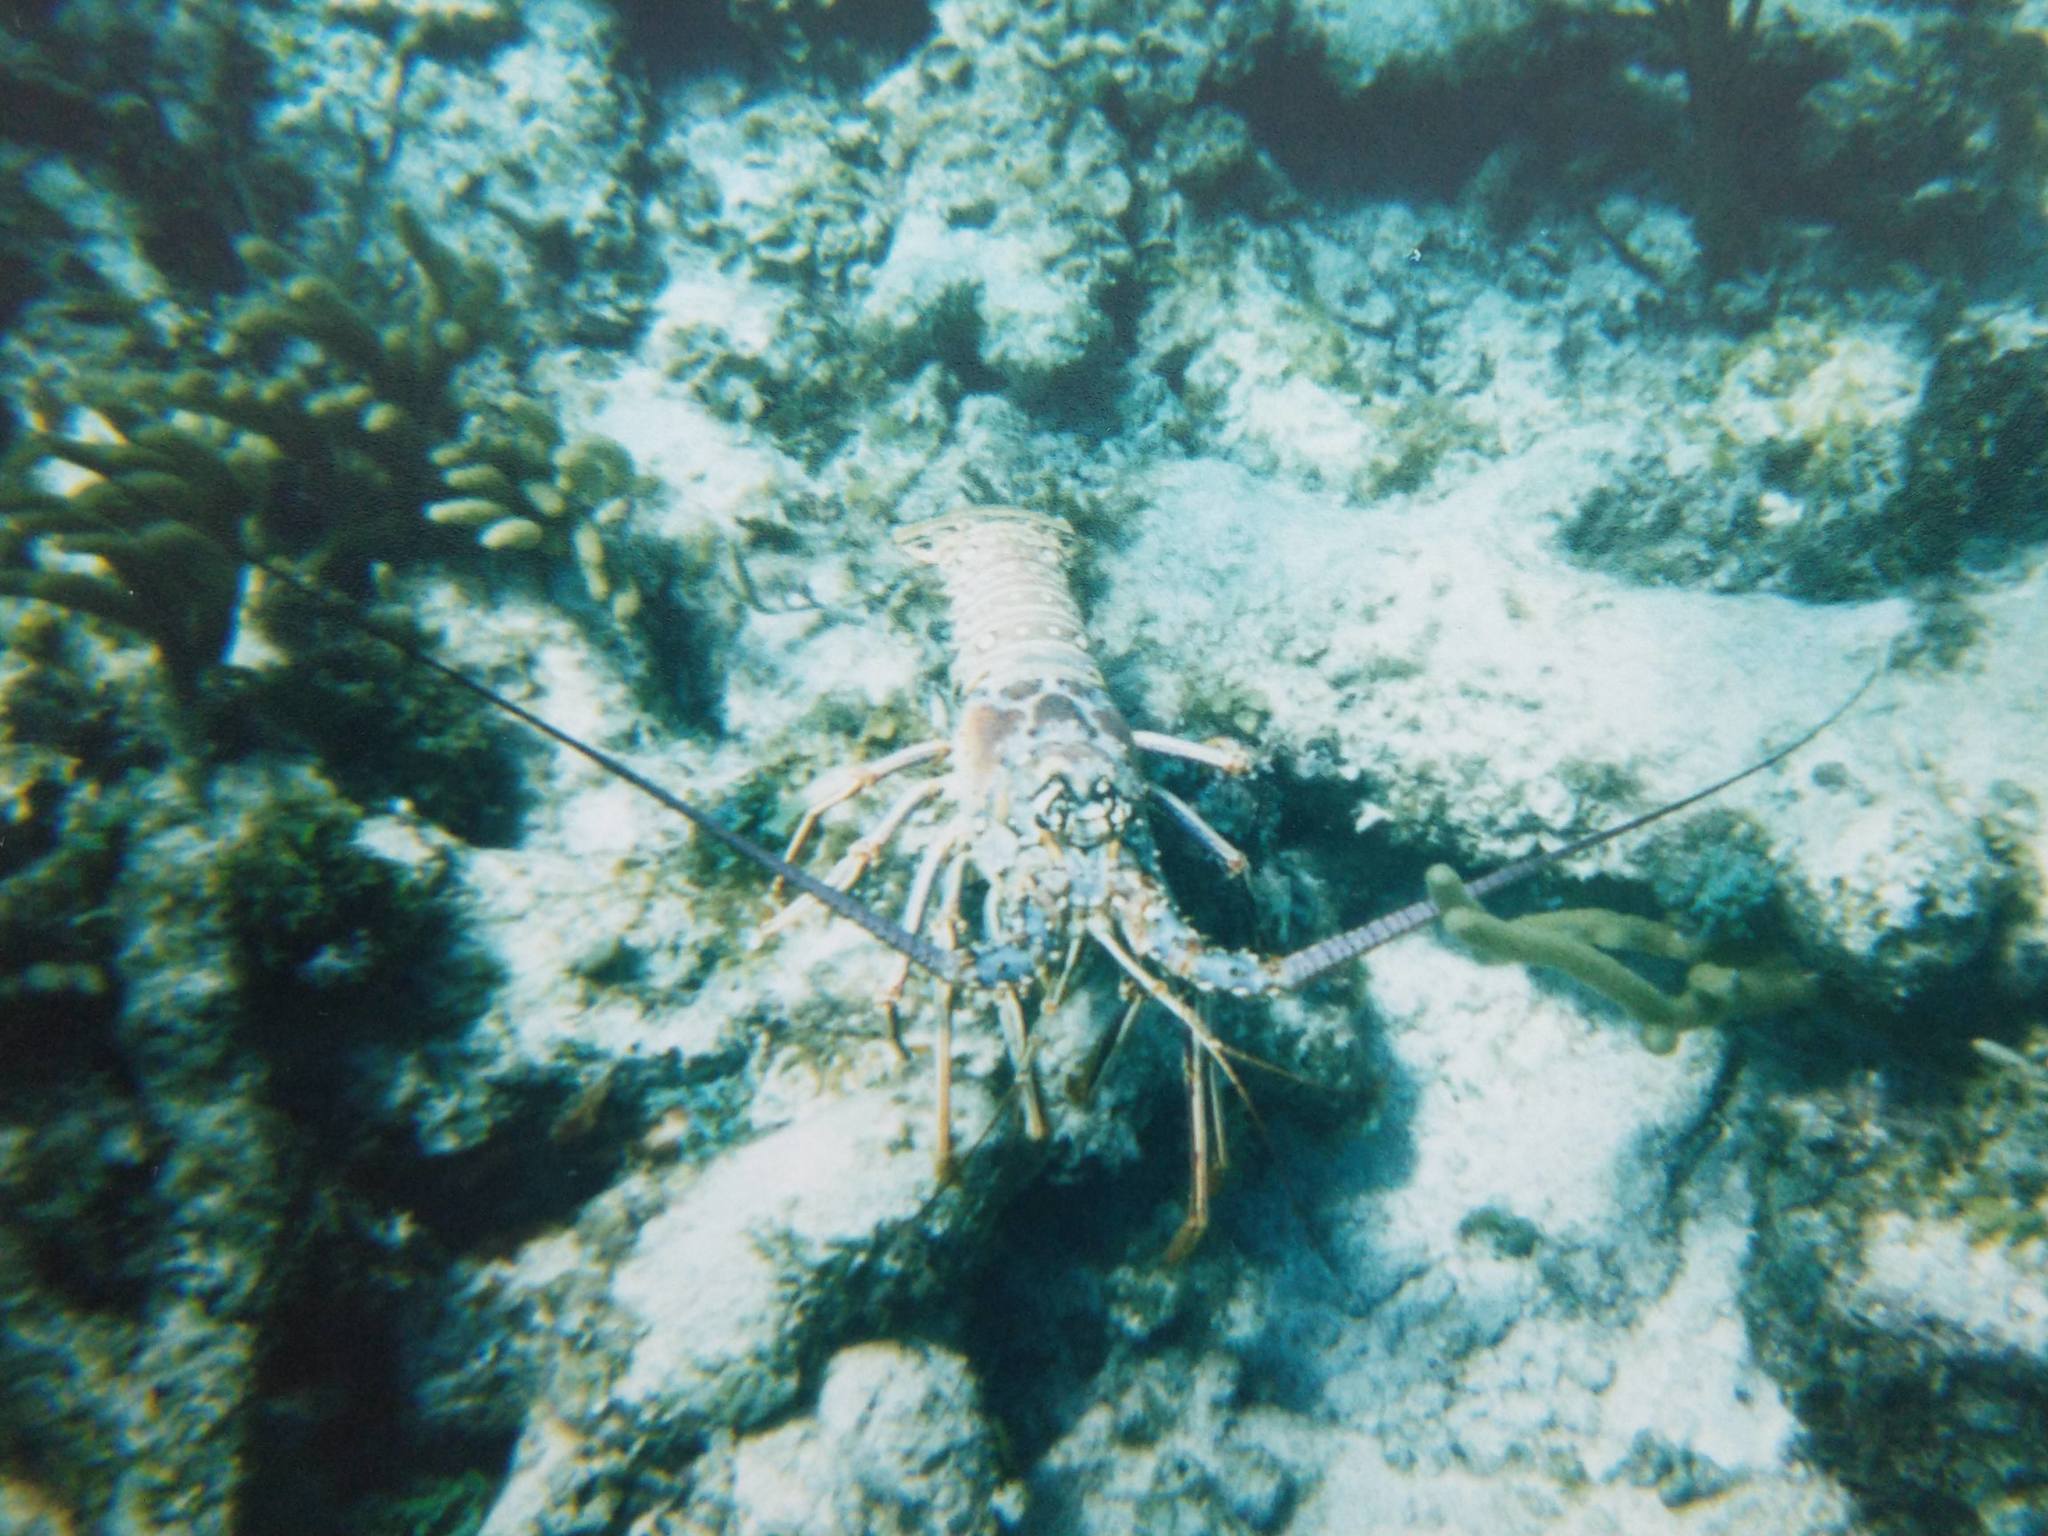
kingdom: Animalia
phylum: Arthropoda
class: Malacostraca
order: Decapoda
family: Palinuridae
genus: Panulirus
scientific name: Panulirus argus
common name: Caribbean spiny lobster
